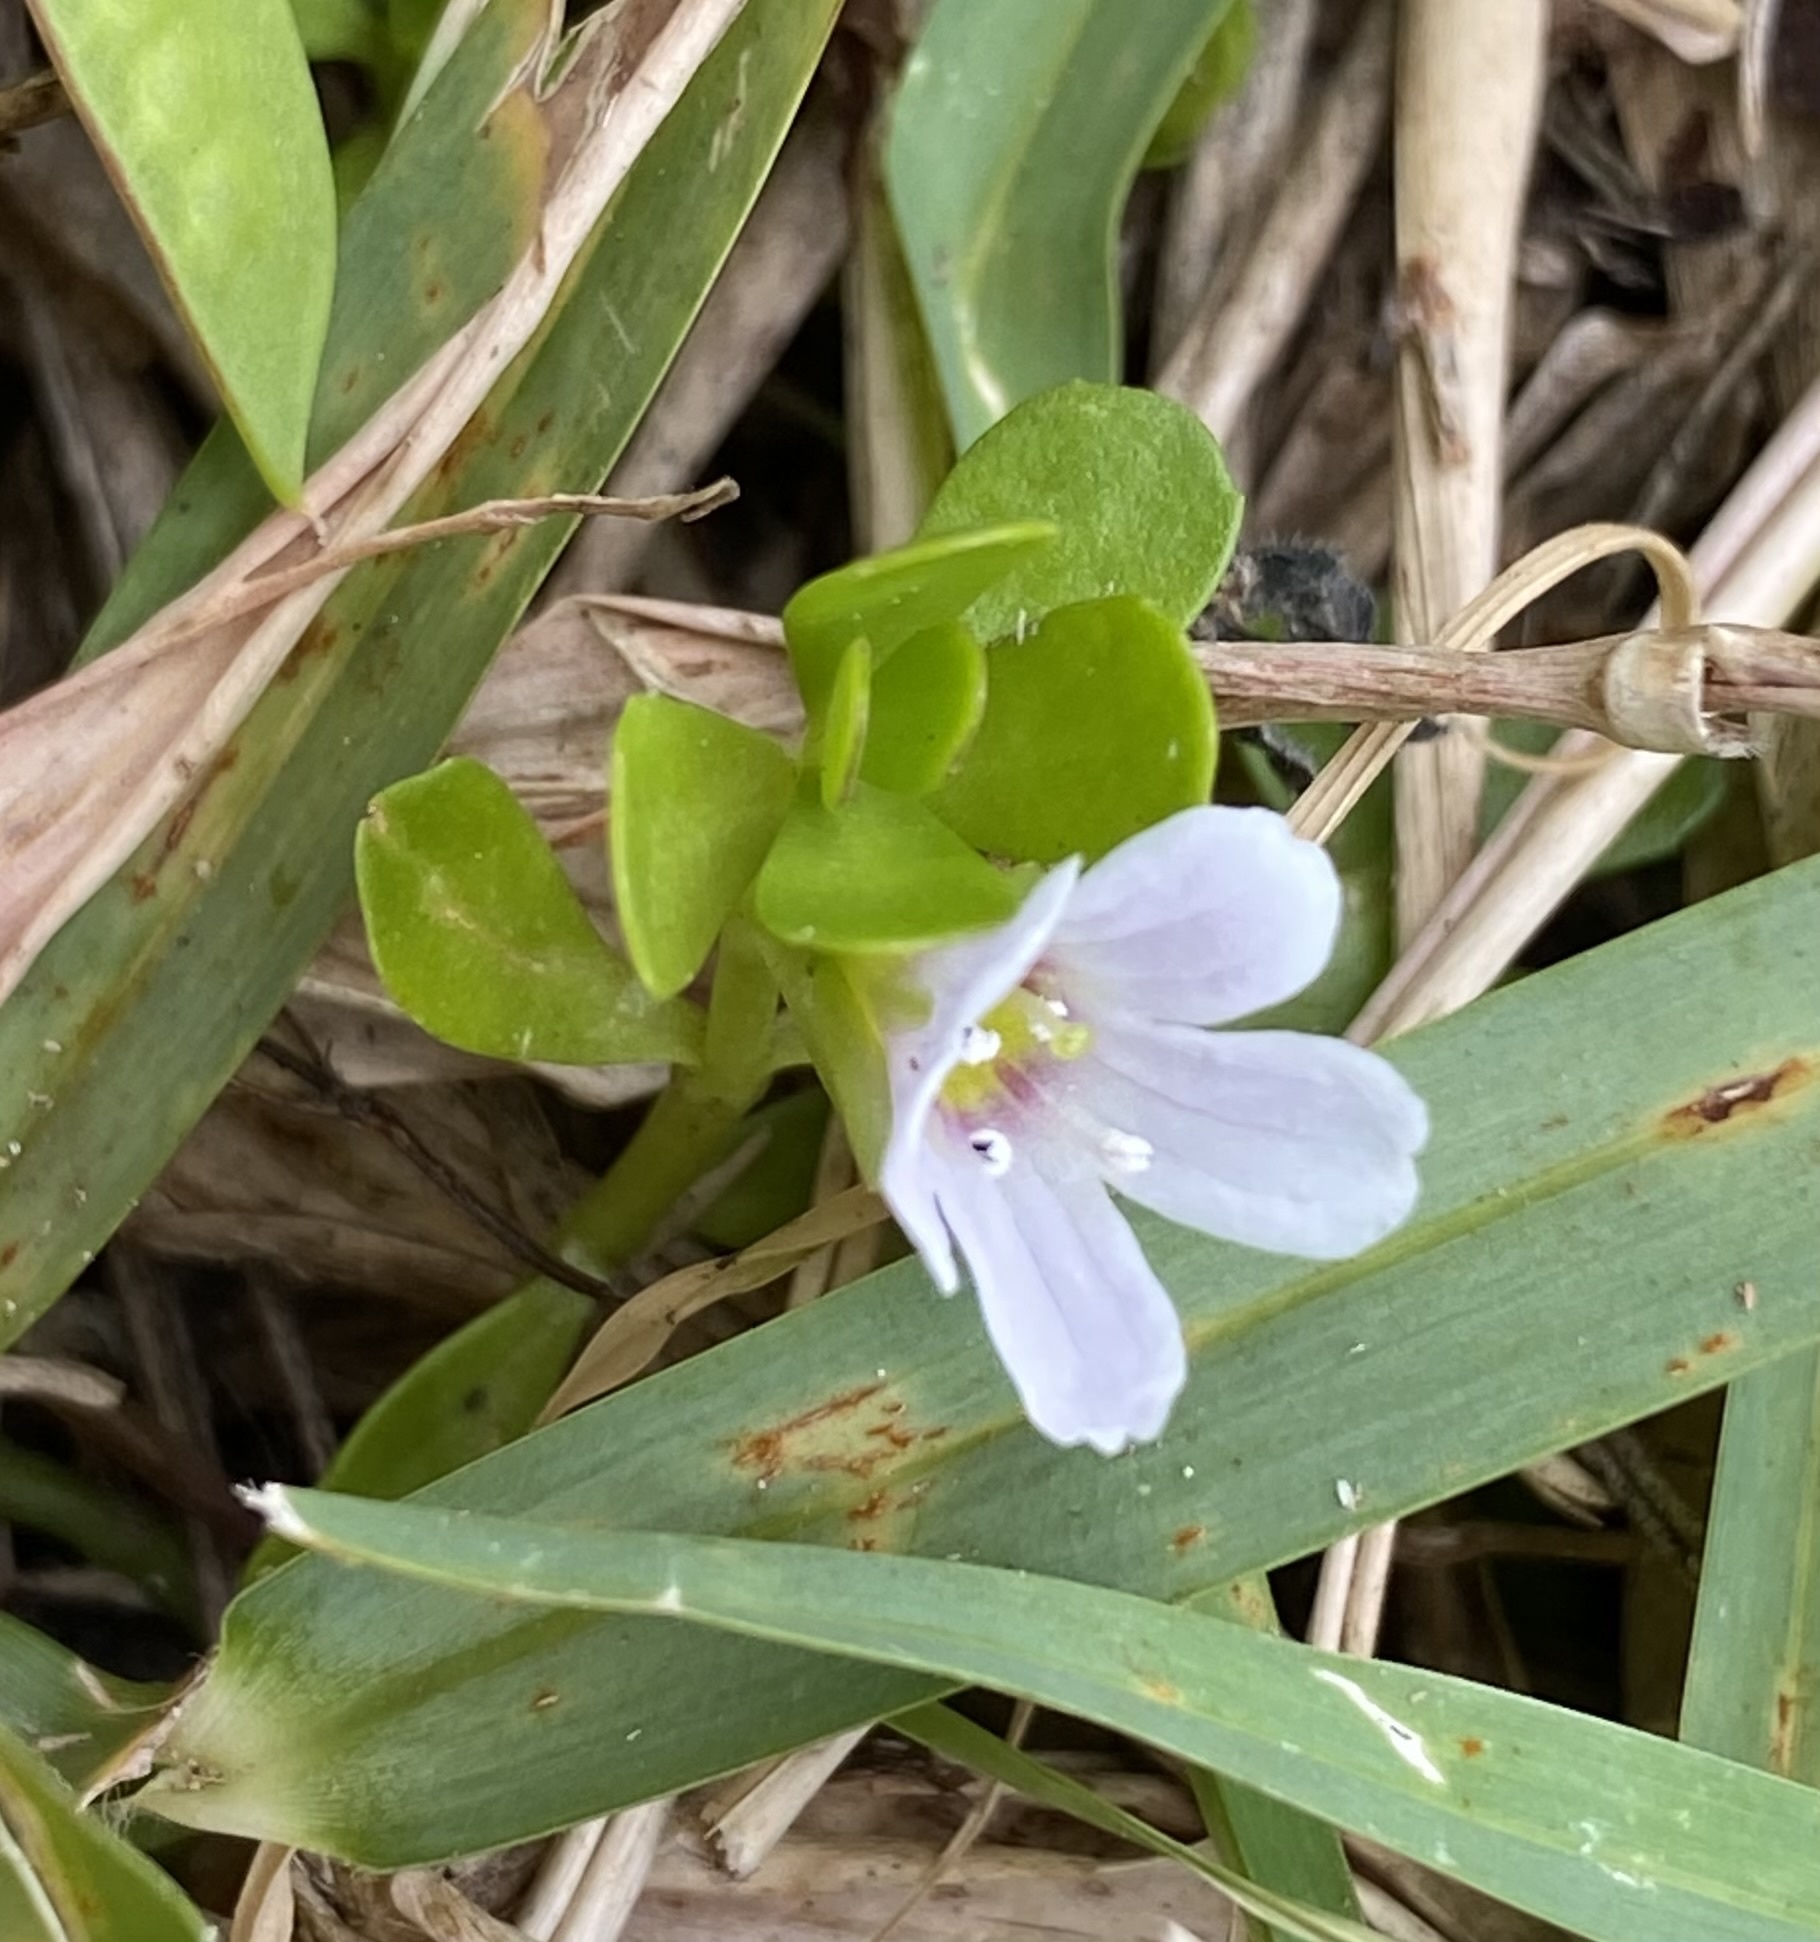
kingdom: Plantae
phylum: Tracheophyta
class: Magnoliopsida
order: Lamiales
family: Plantaginaceae
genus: Bacopa
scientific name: Bacopa monnieri
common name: Indian-pennywort
